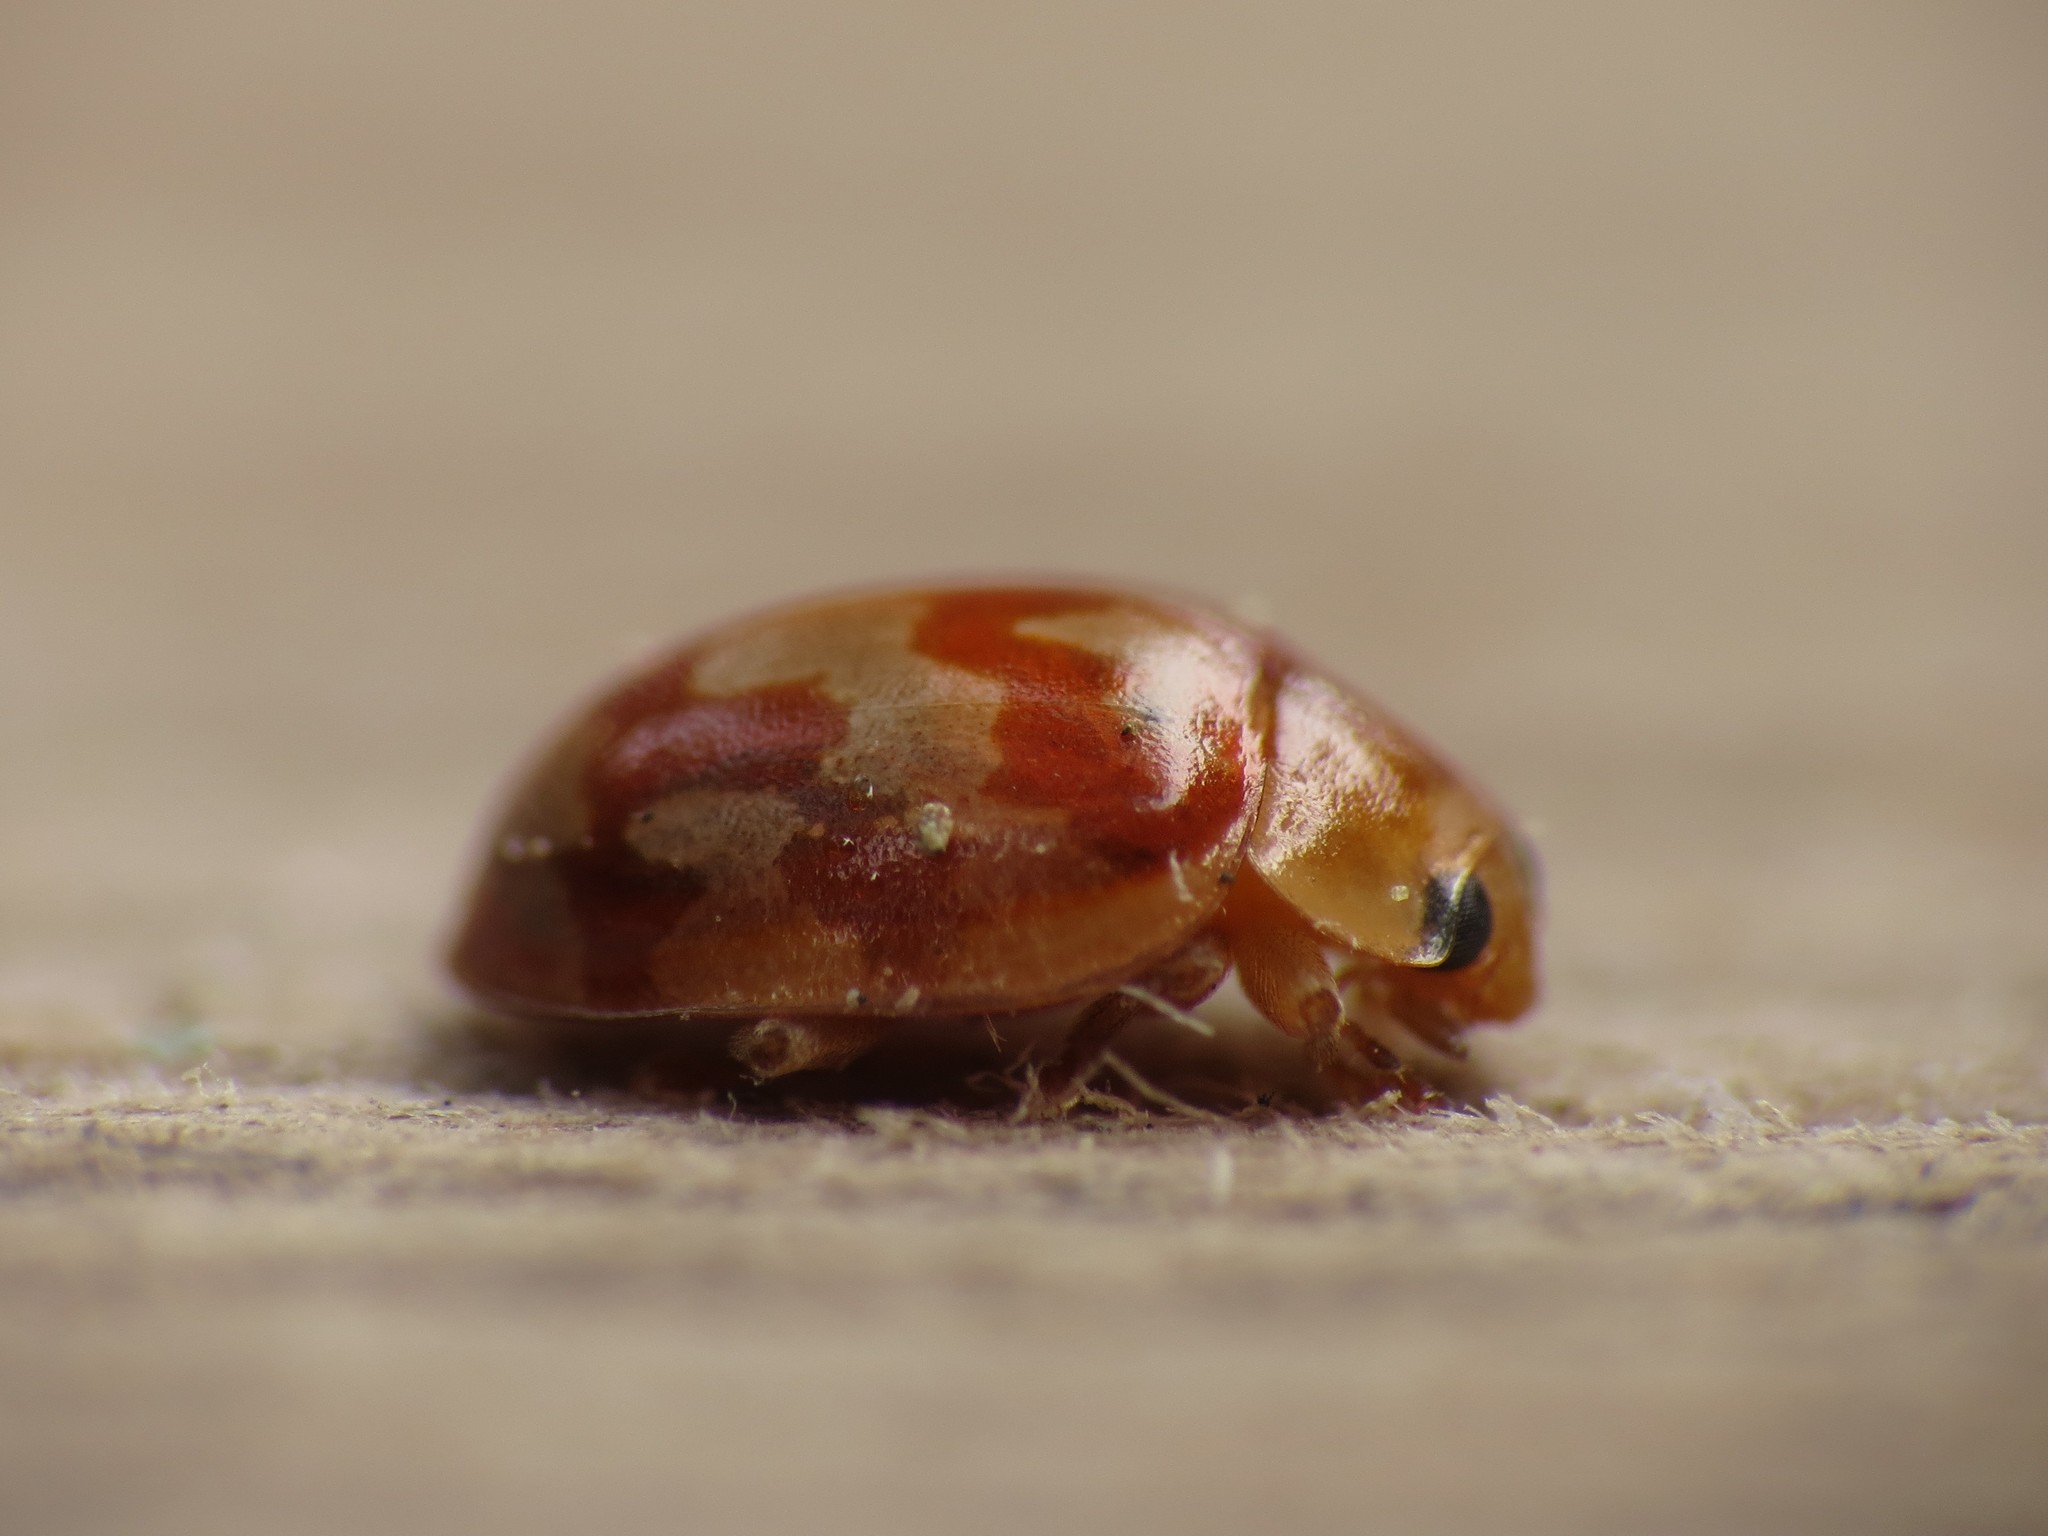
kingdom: Animalia
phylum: Arthropoda
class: Insecta
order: Coleoptera
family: Coccinellidae
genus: Myrrha
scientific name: Myrrha octodecimguttata
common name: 18-spot ladybird
